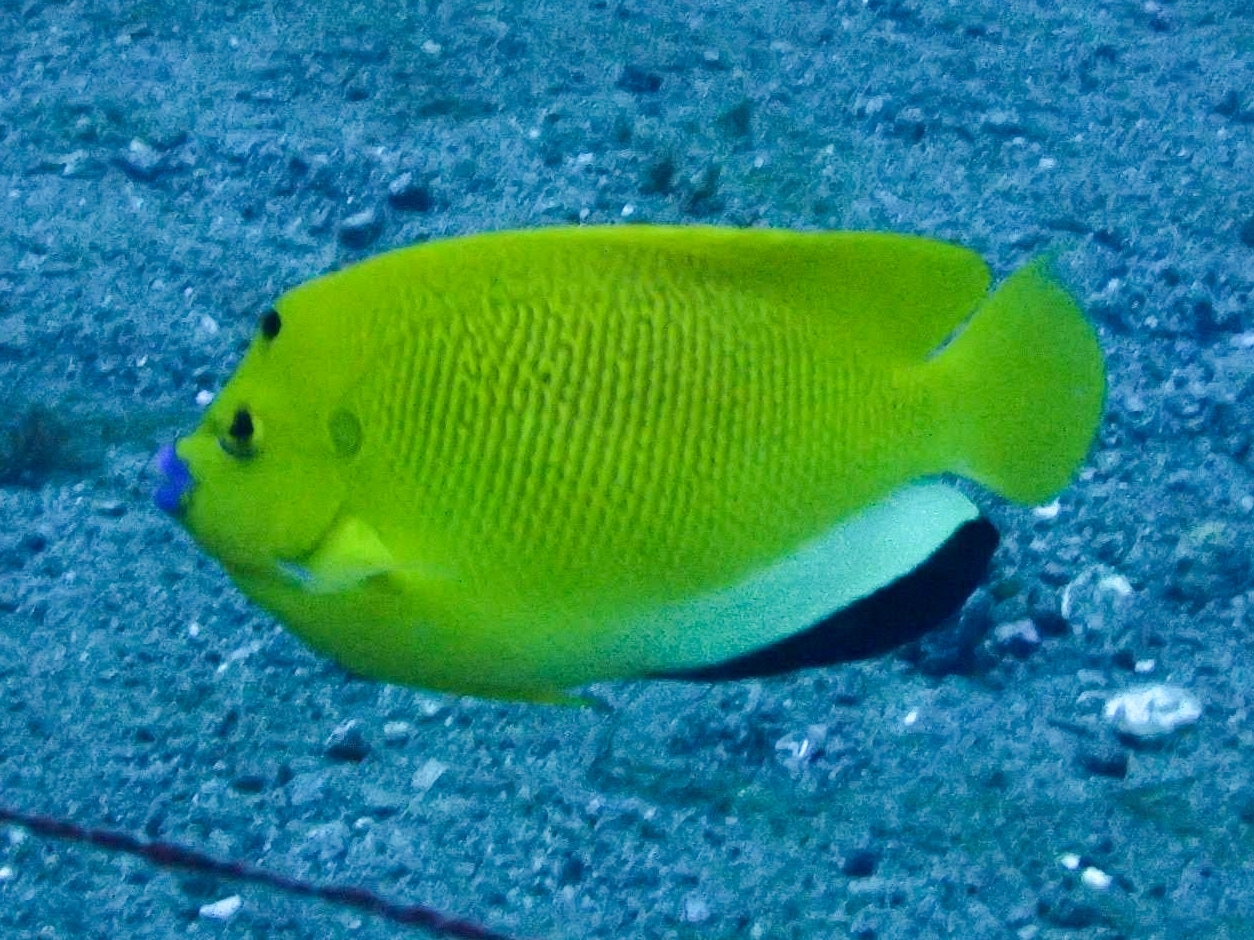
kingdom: Animalia
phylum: Chordata
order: Perciformes
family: Pomacanthidae
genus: Apolemichthys
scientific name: Apolemichthys trimaculatus
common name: Threespot angelfish
